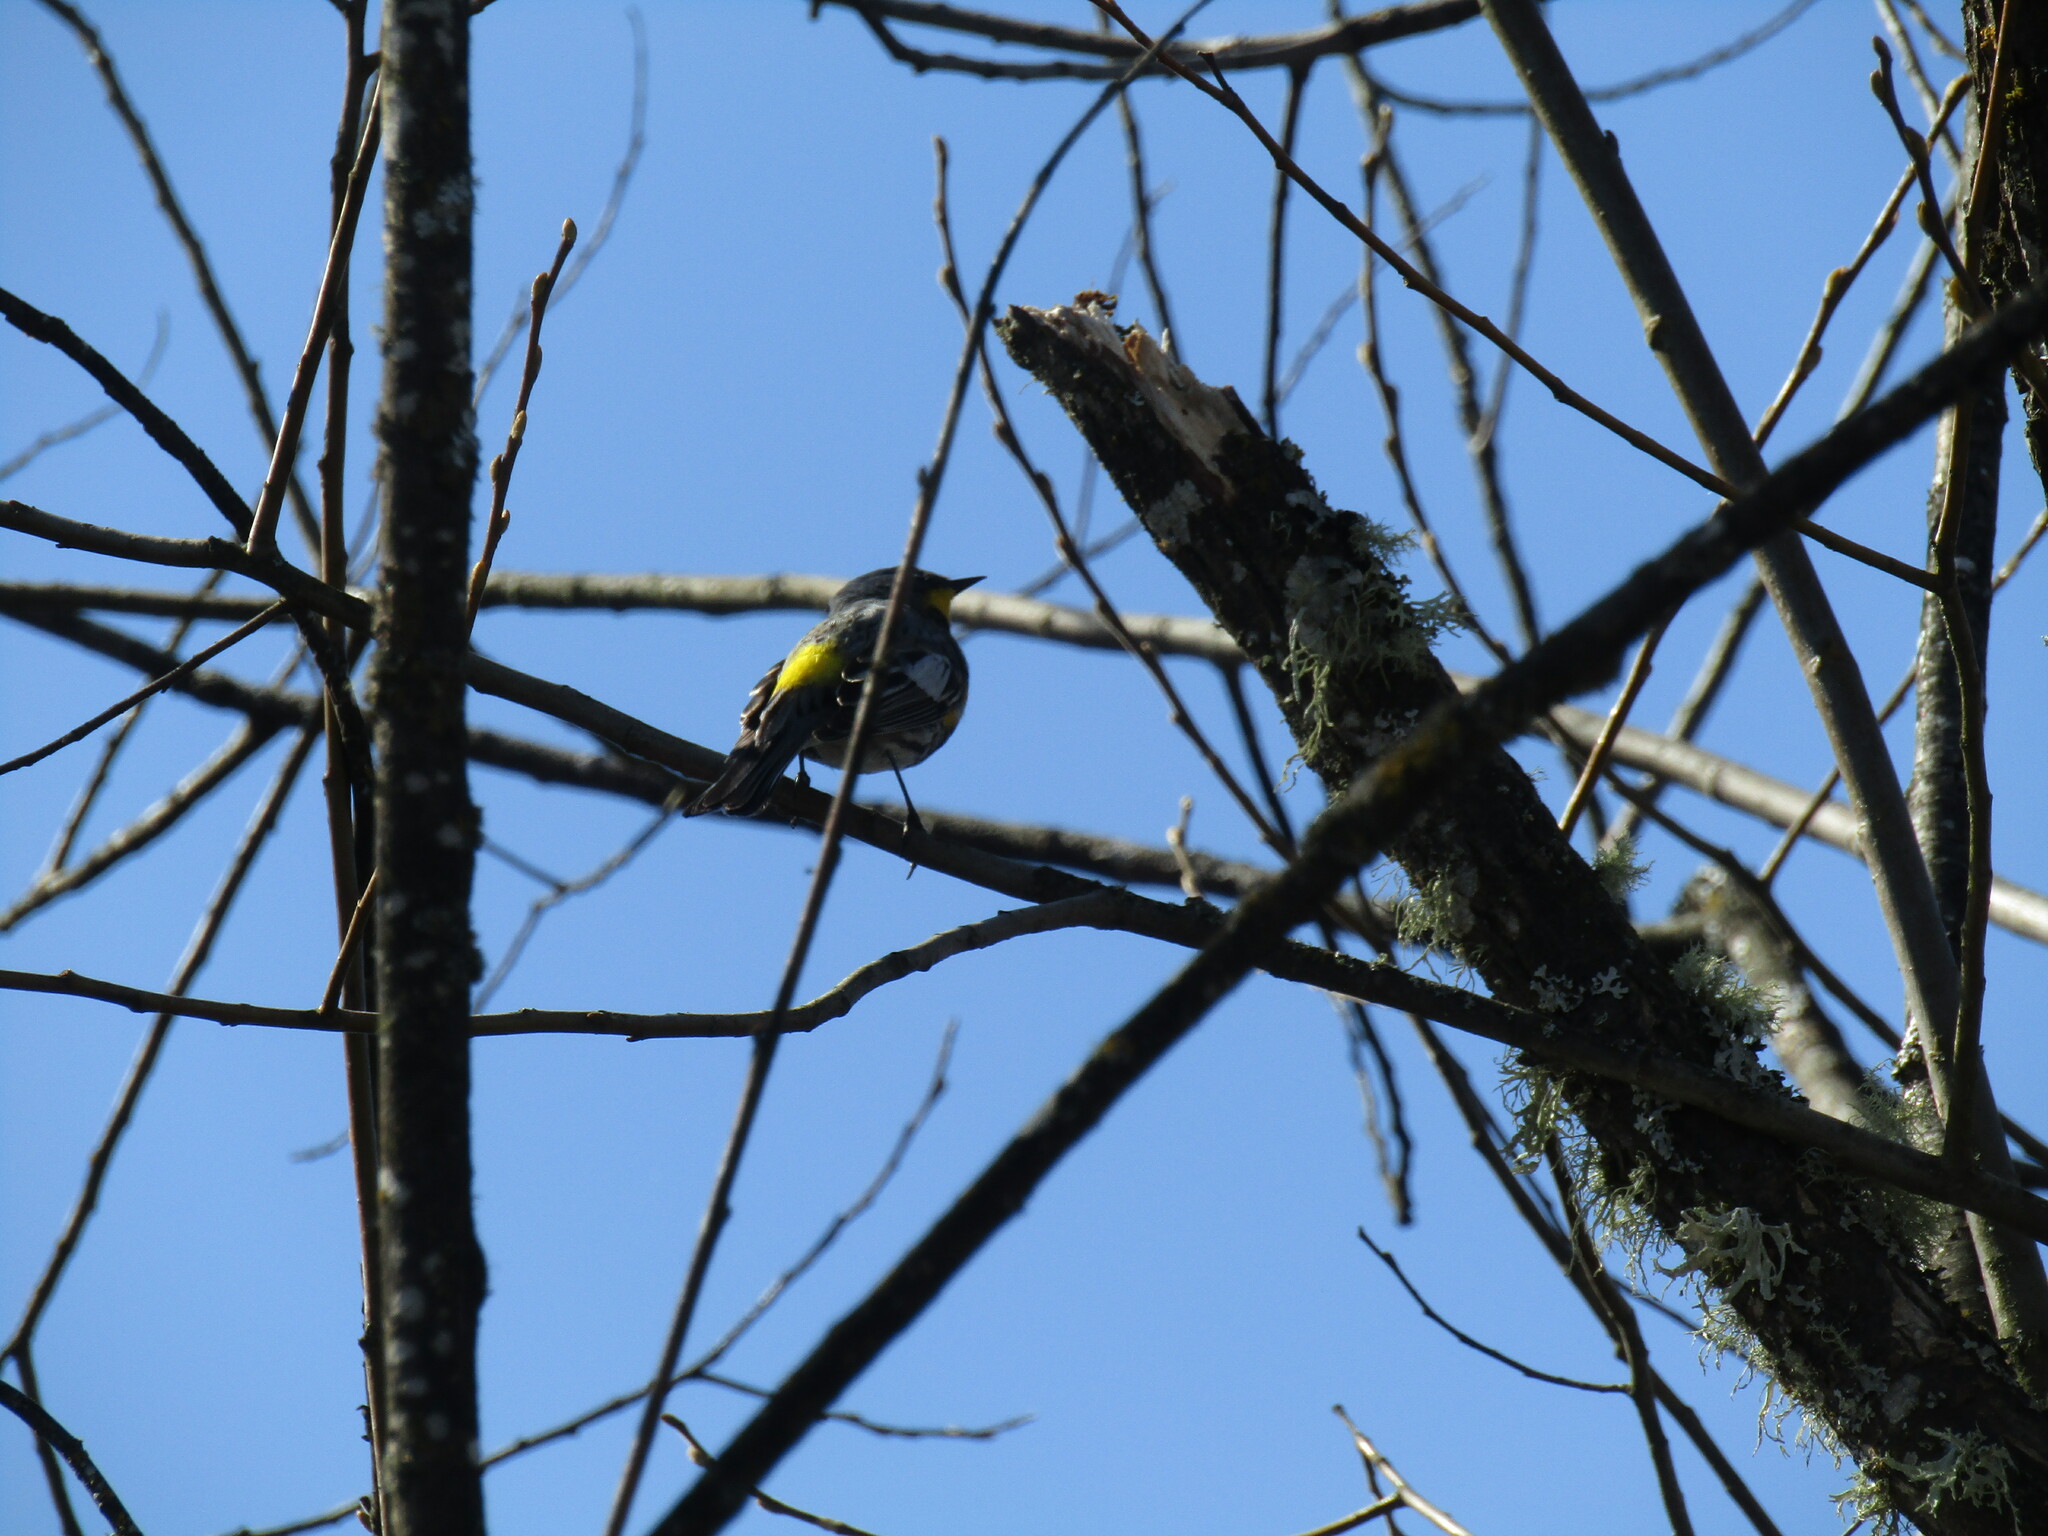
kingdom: Animalia
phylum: Chordata
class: Aves
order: Passeriformes
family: Parulidae
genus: Setophaga
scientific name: Setophaga coronata
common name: Myrtle warbler
